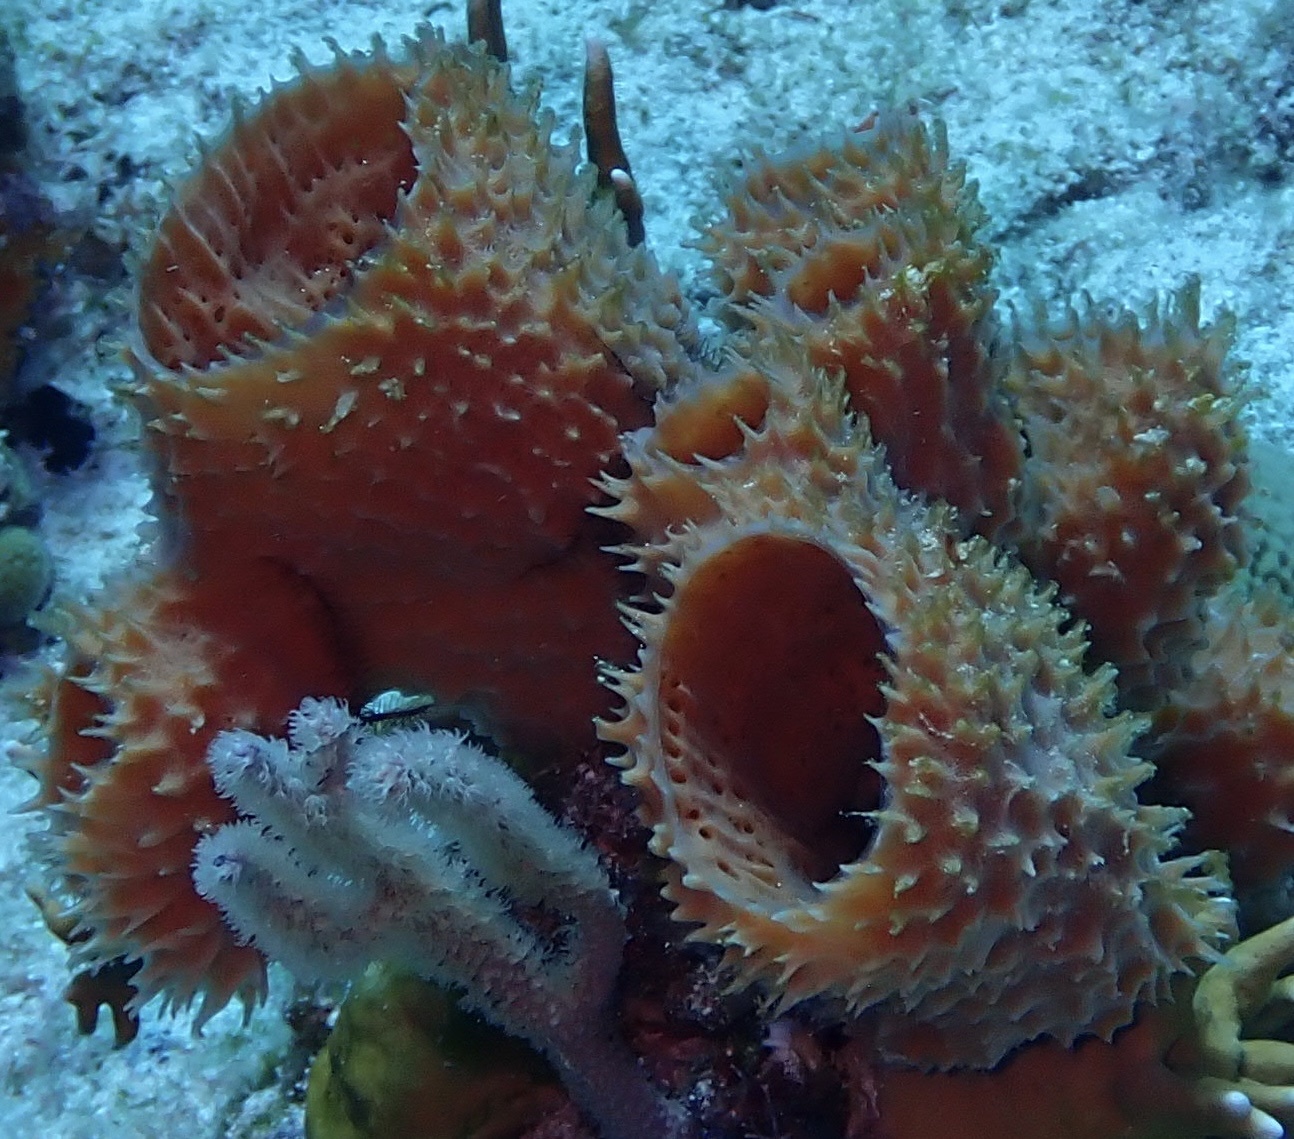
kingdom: Animalia
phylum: Porifera
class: Demospongiae
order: Haplosclerida
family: Callyspongiidae
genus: Callyspongia
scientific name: Callyspongia aculeata
